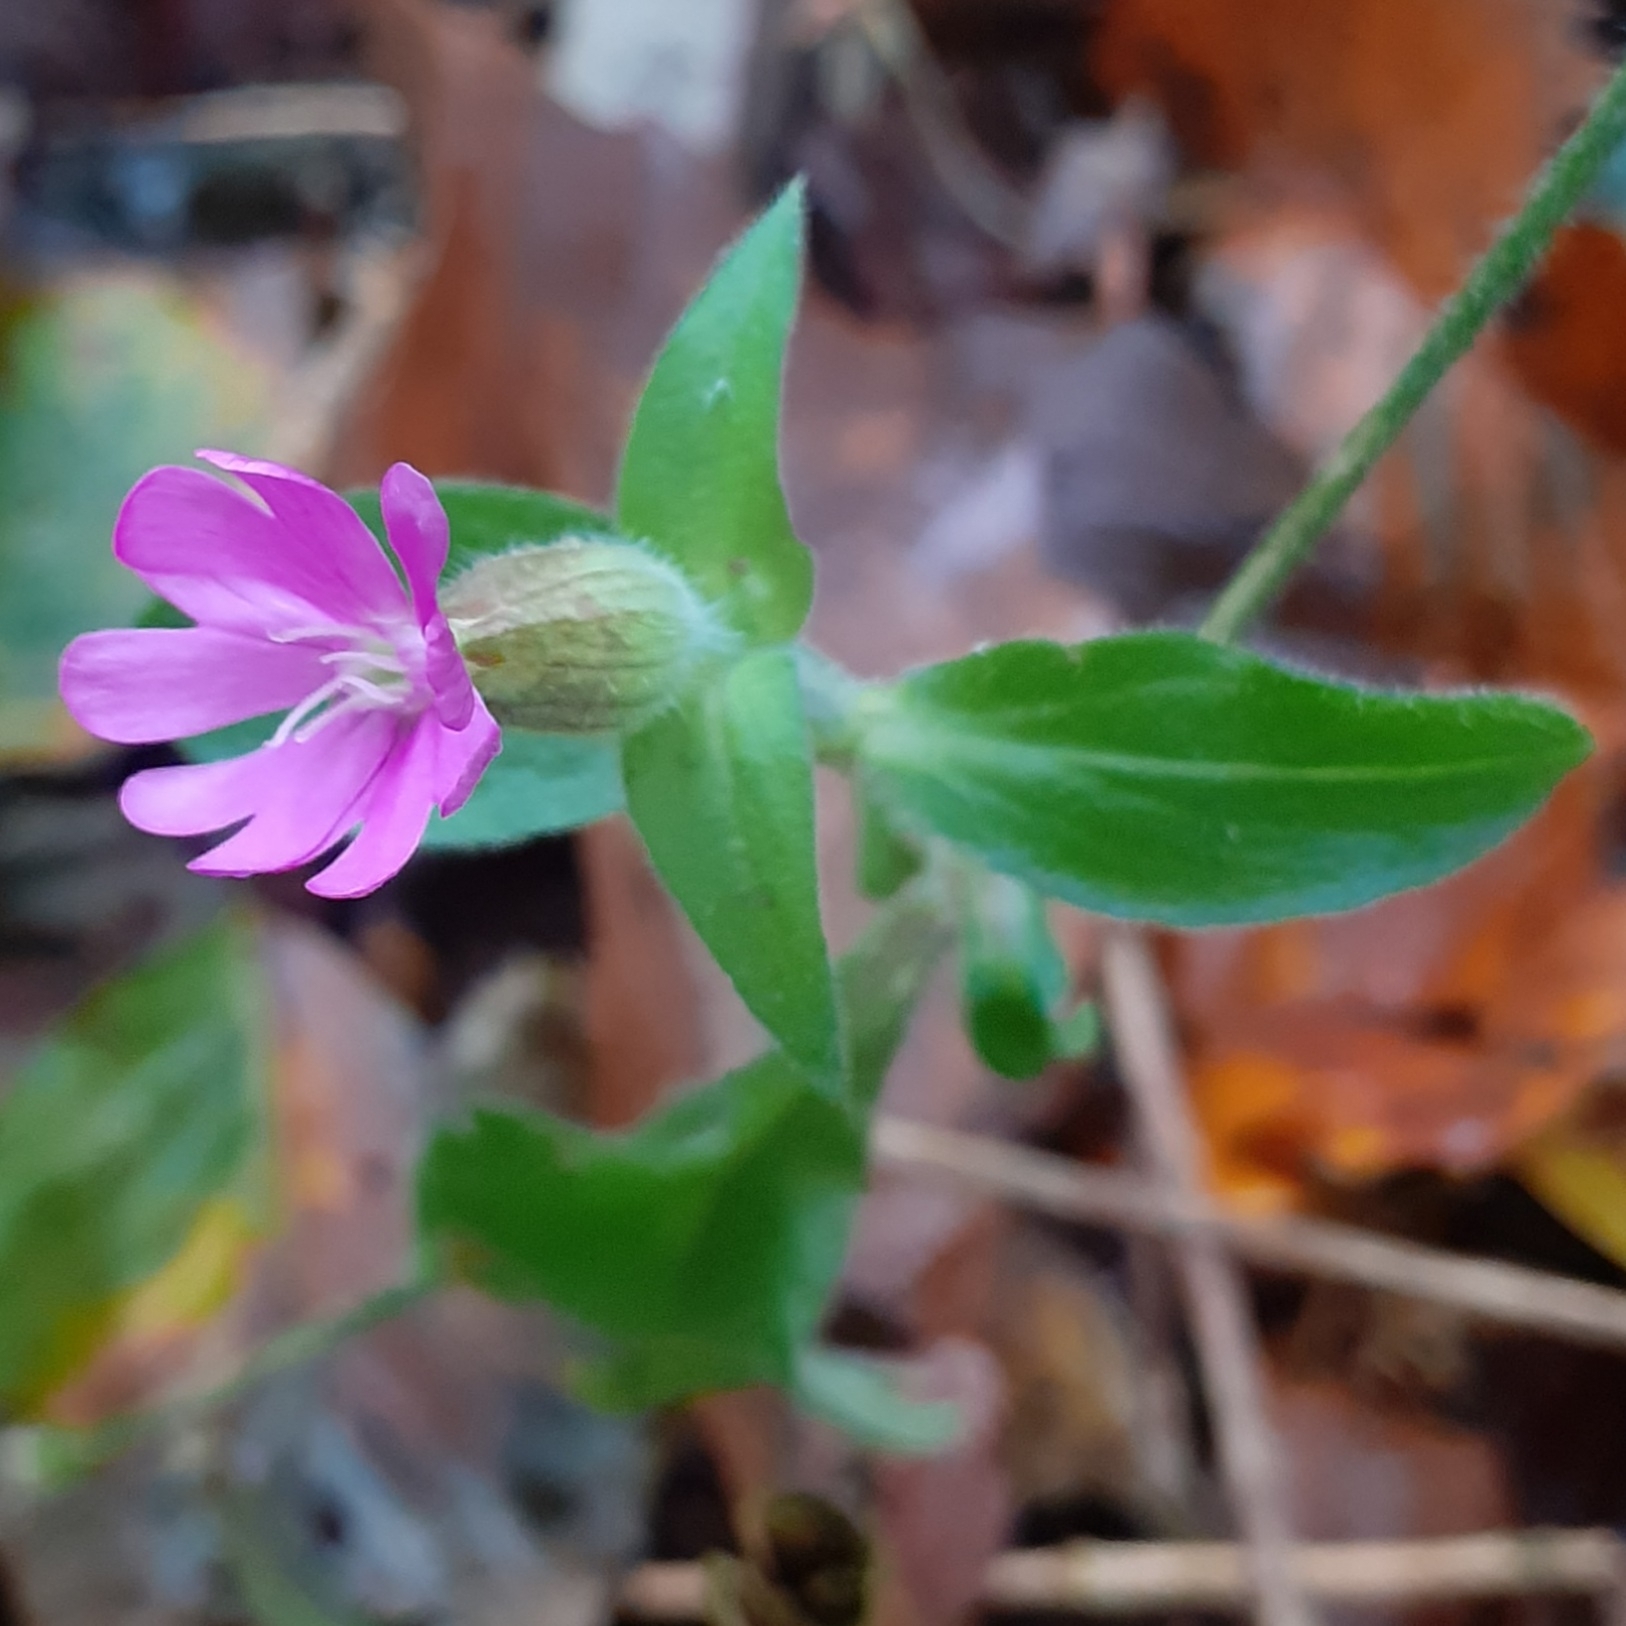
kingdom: Plantae
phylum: Tracheophyta
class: Magnoliopsida
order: Caryophyllales
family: Caryophyllaceae
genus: Silene
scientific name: Silene dioica
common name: Red campion
